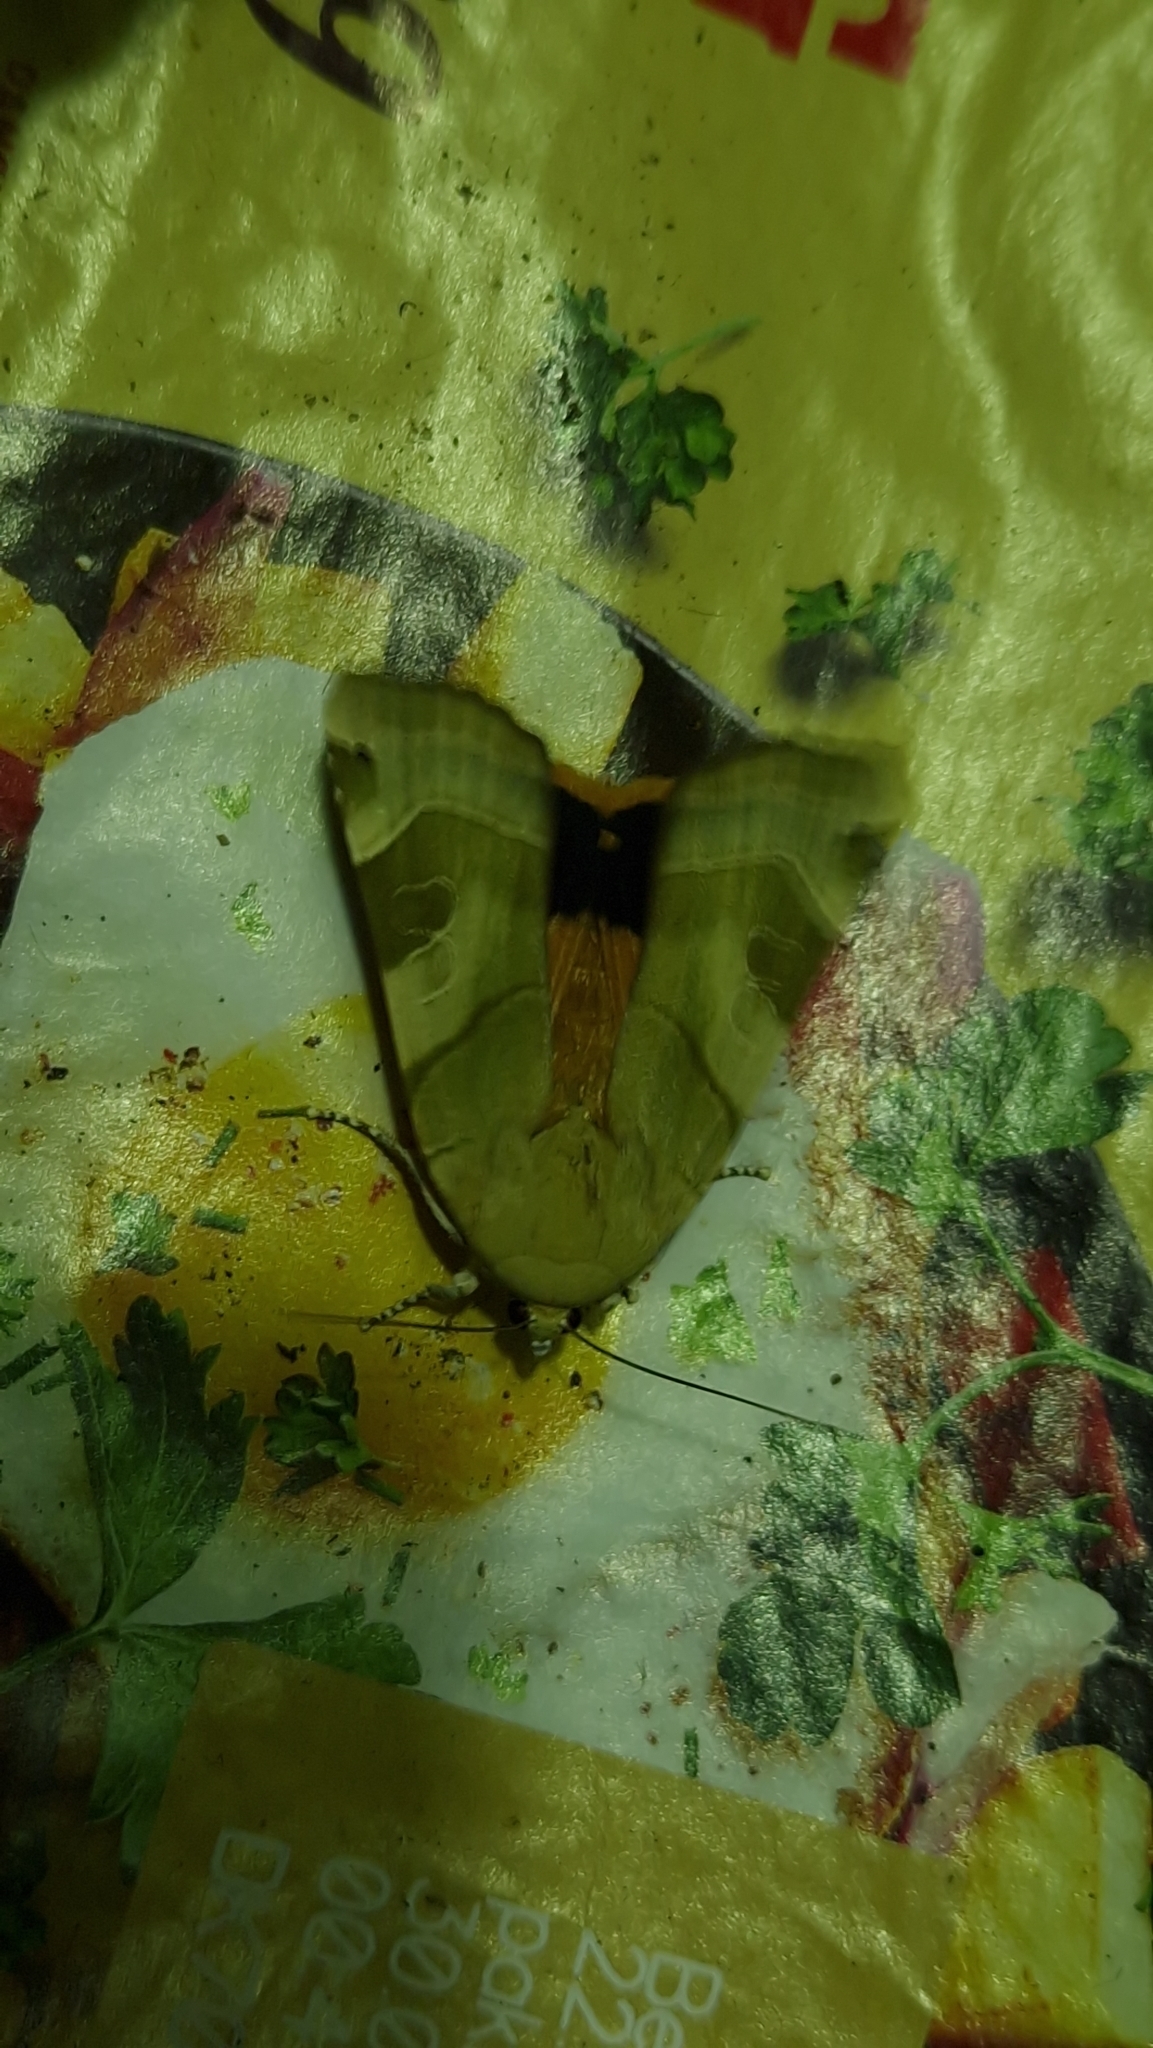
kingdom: Animalia
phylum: Arthropoda
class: Insecta
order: Lepidoptera
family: Noctuidae
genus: Noctua
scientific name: Noctua fimbriata
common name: Broad-bordered yellow underwing
